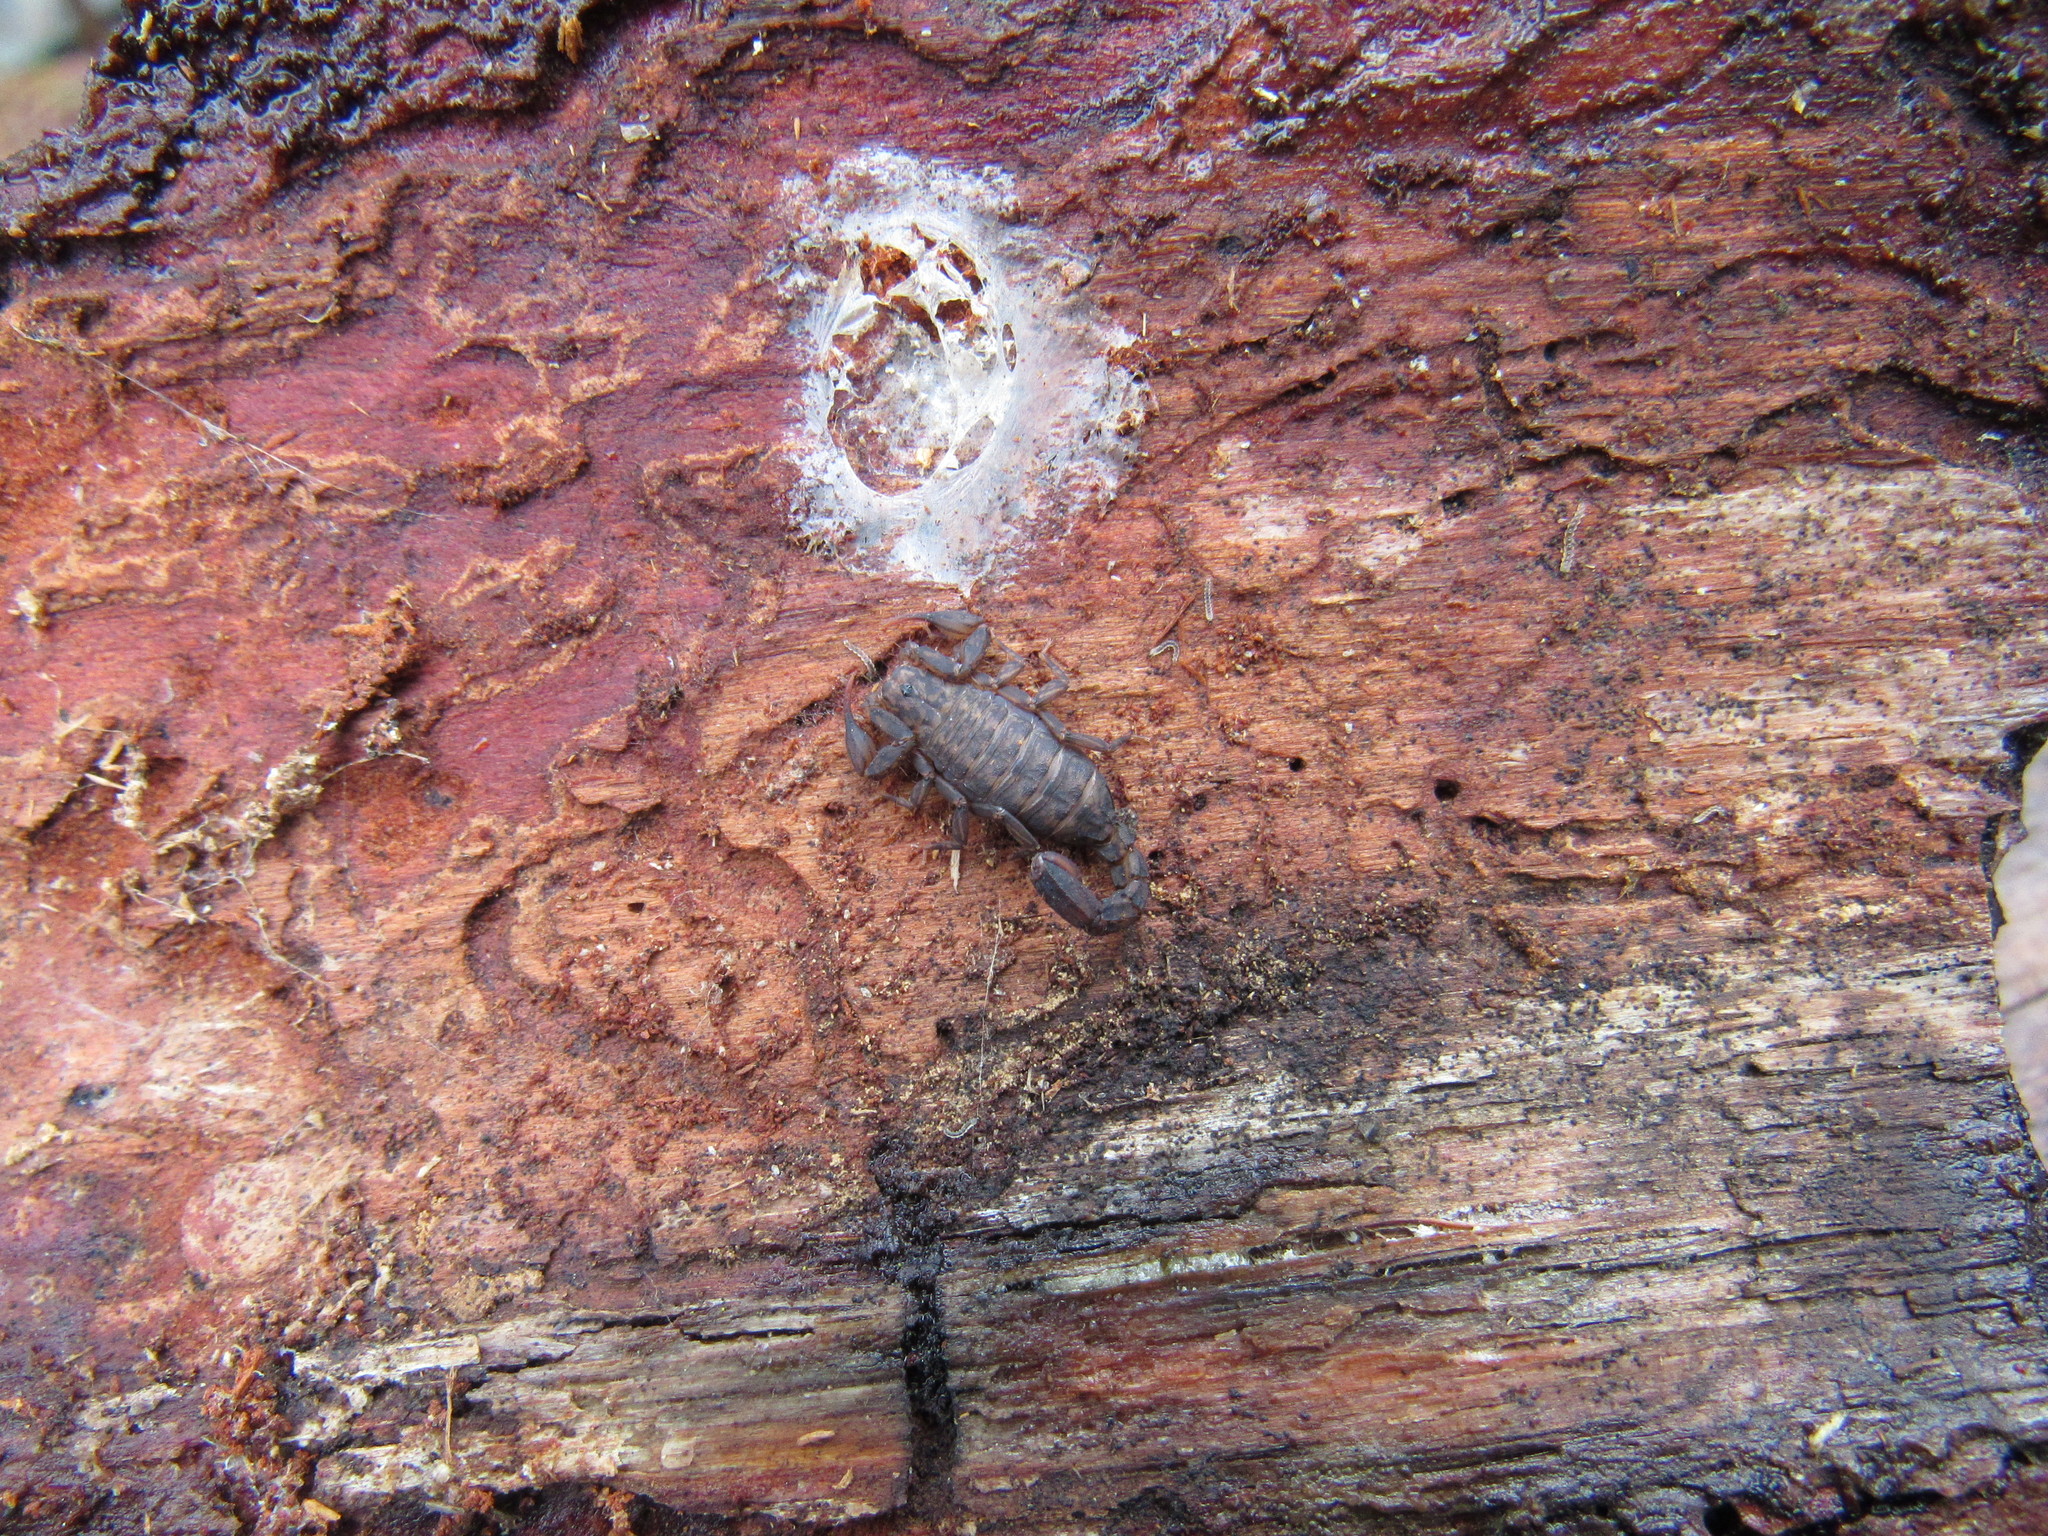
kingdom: Animalia
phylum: Arthropoda
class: Arachnida
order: Scorpiones
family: Vaejovidae
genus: Vaejovis
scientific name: Vaejovis rossmani
